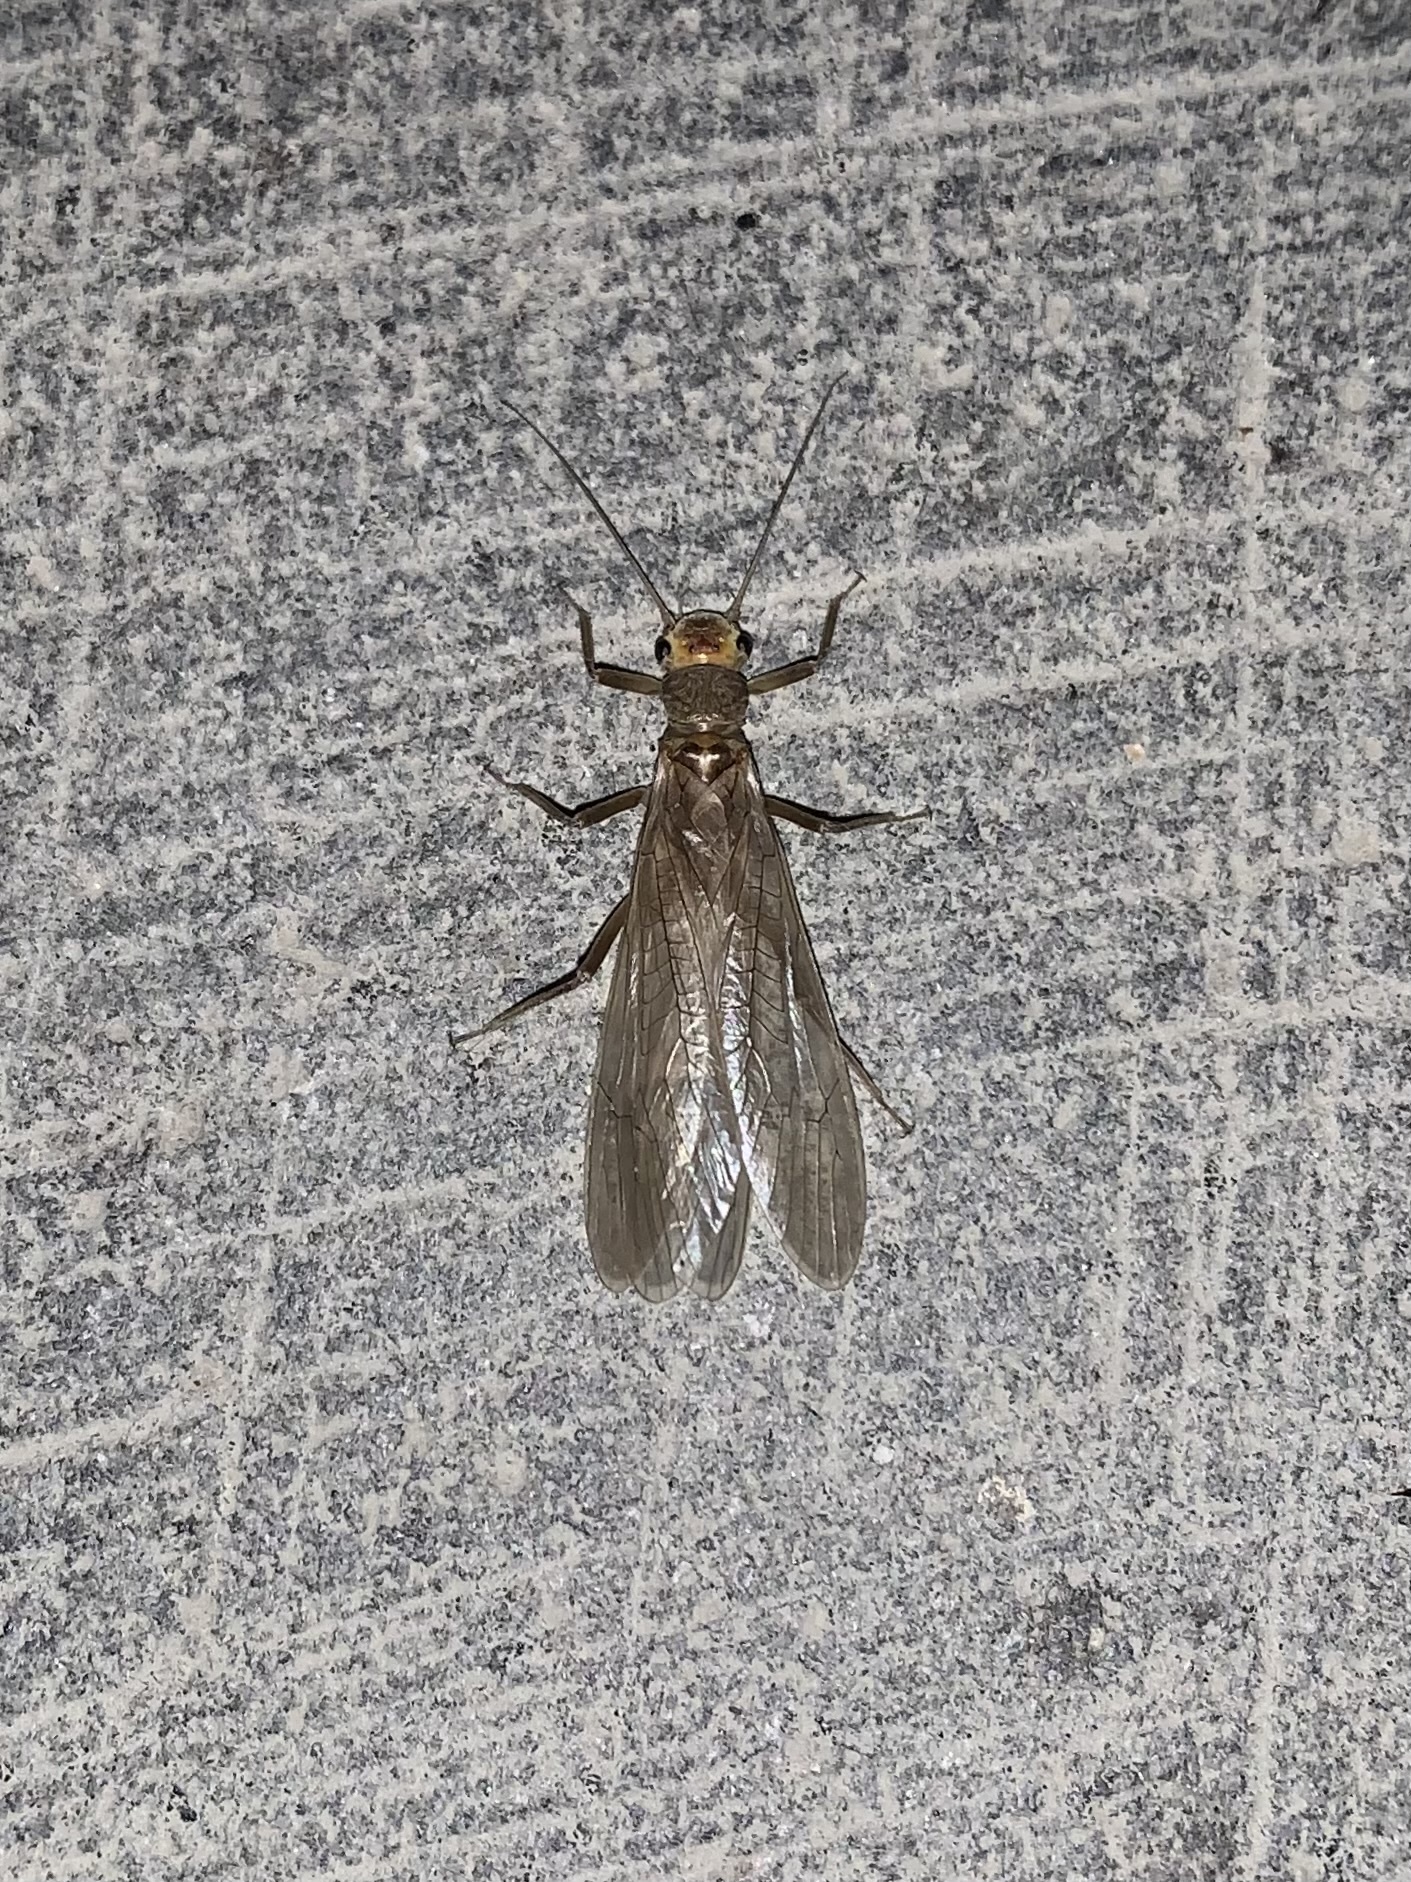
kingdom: Animalia
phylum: Arthropoda
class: Insecta
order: Plecoptera
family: Perlodidae
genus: Isoperla
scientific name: Isoperla bithynica
